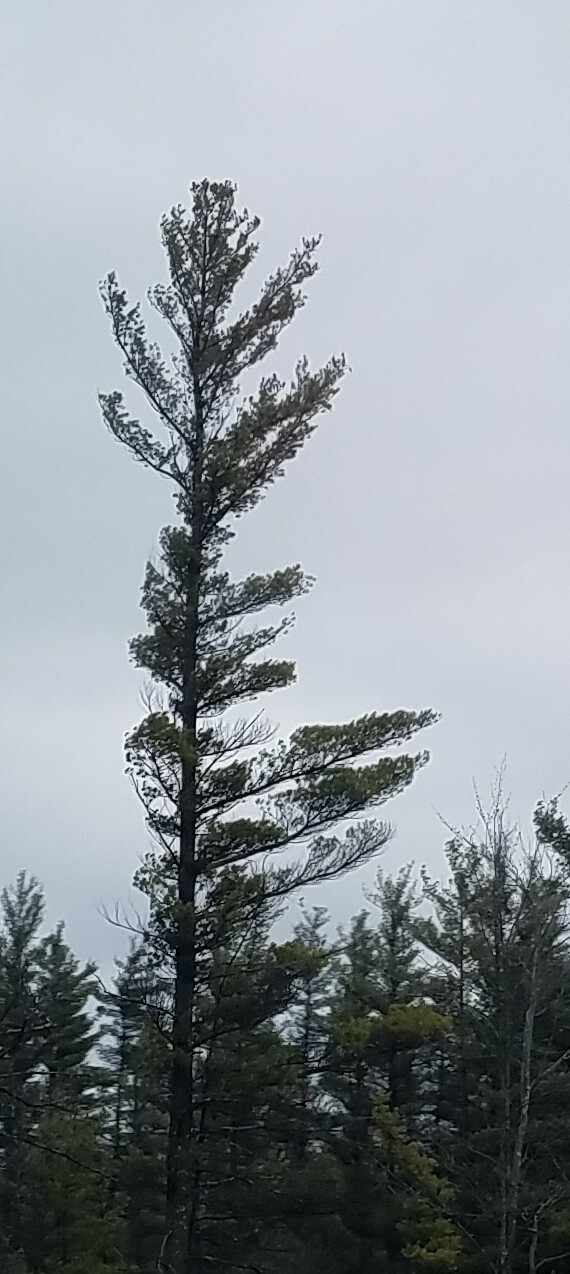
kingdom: Plantae
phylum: Tracheophyta
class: Pinopsida
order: Pinales
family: Pinaceae
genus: Pinus
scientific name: Pinus strobus
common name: Weymouth pine
